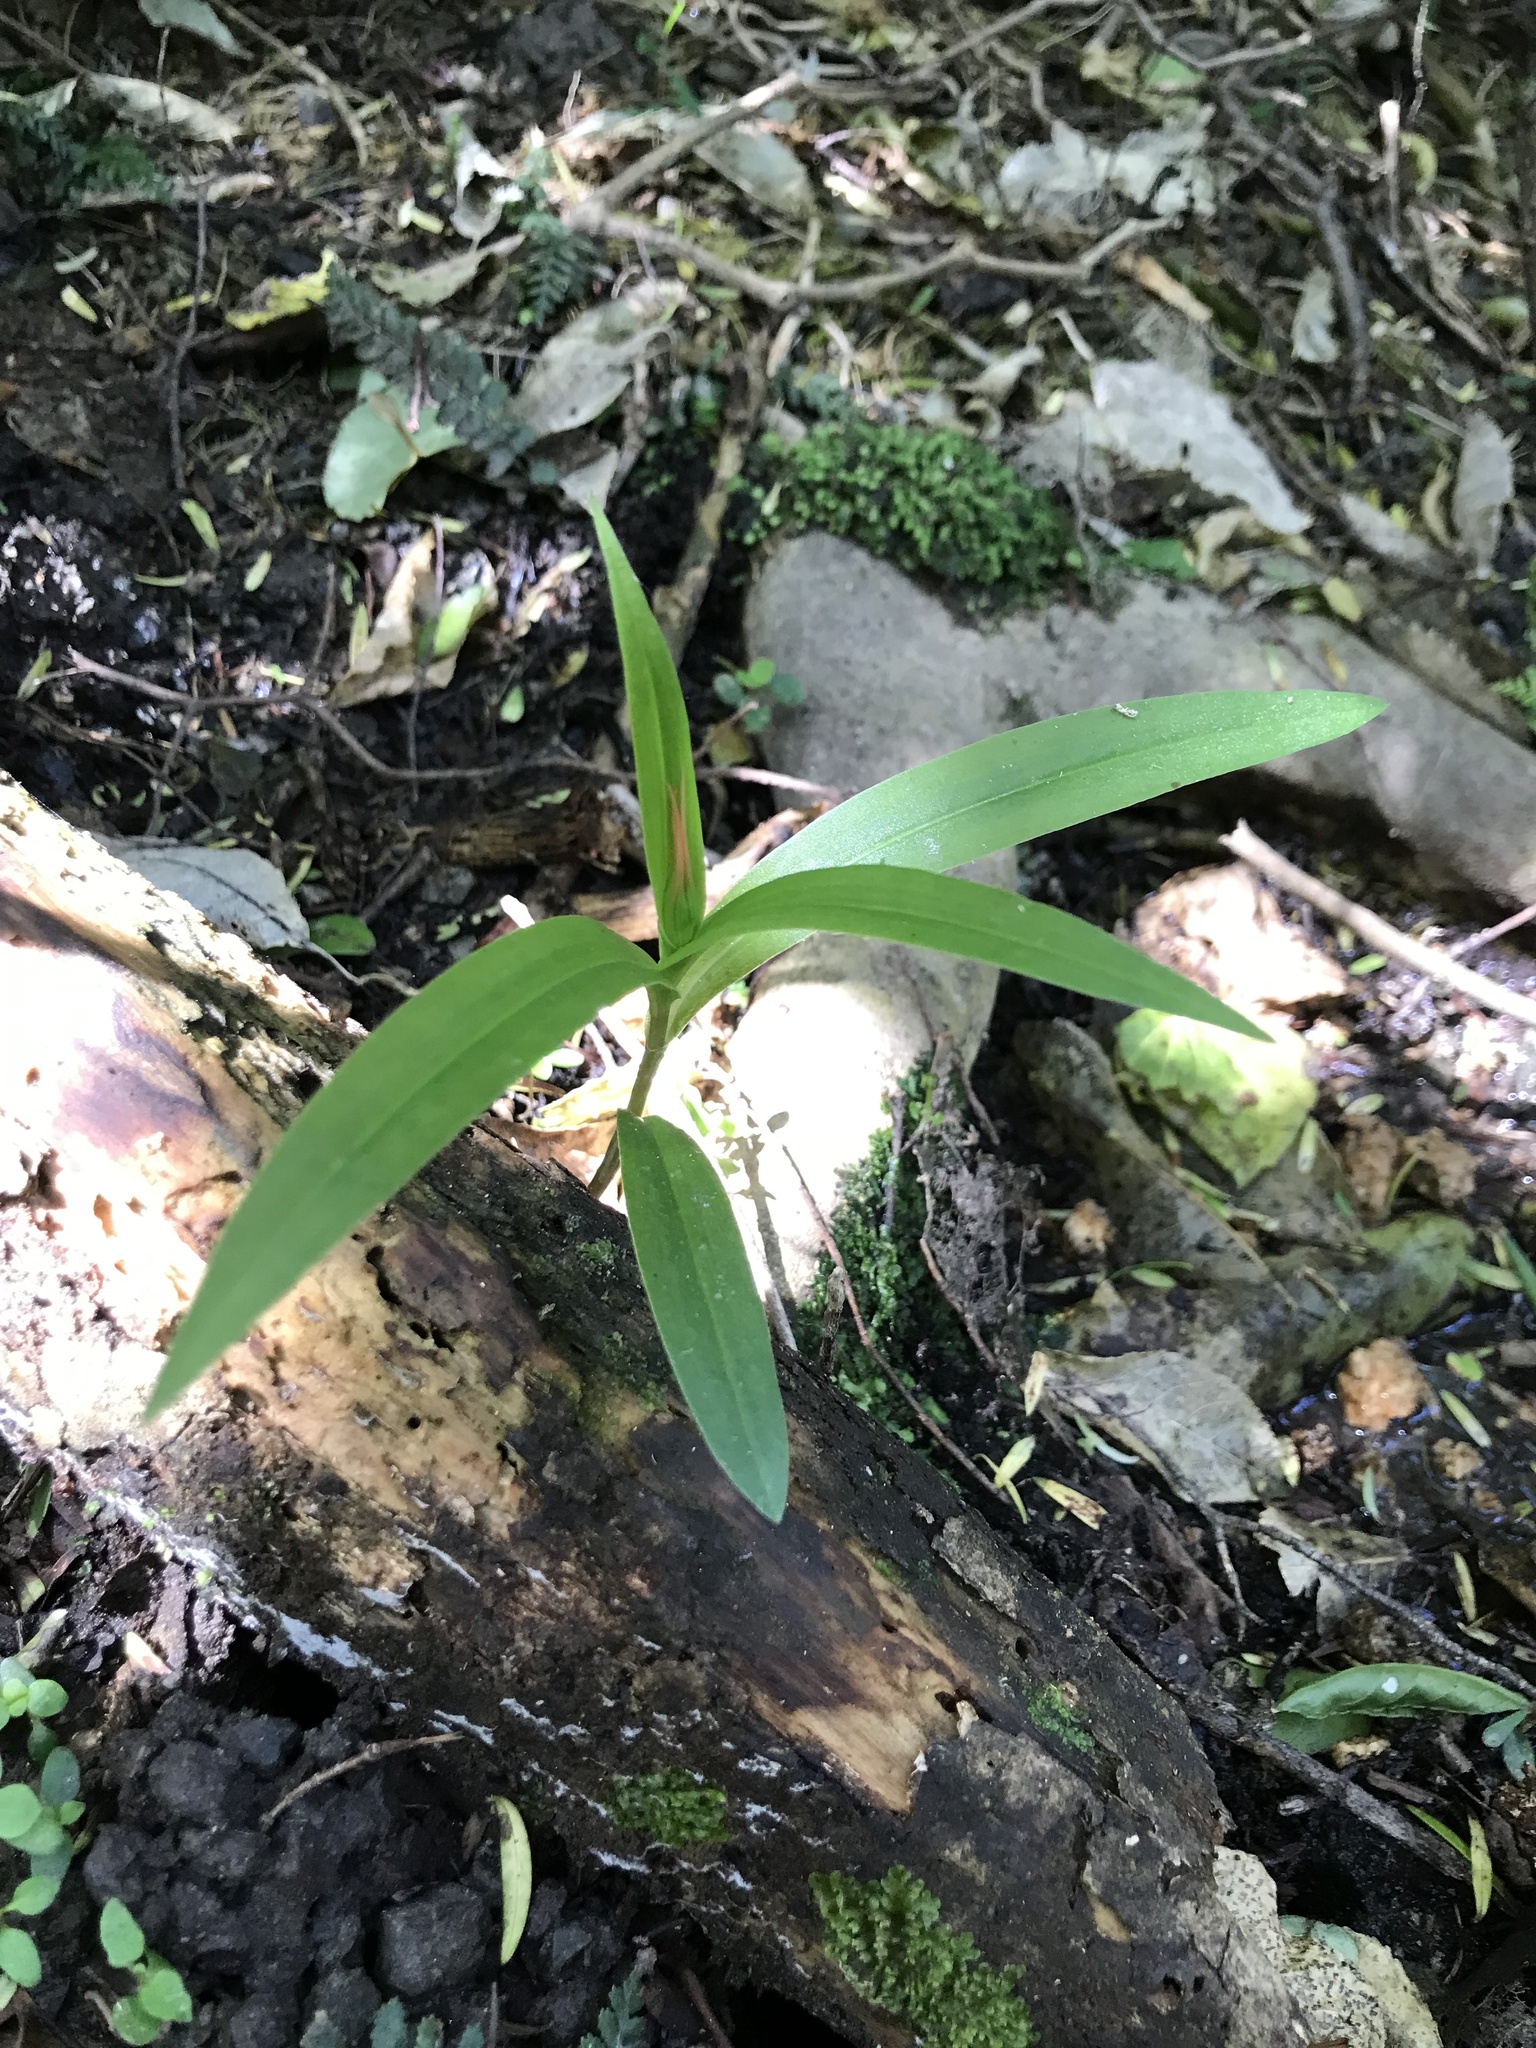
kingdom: Plantae
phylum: Tracheophyta
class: Liliopsida
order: Asparagales
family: Orchidaceae
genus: Pterostylis
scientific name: Pterostylis graminea
